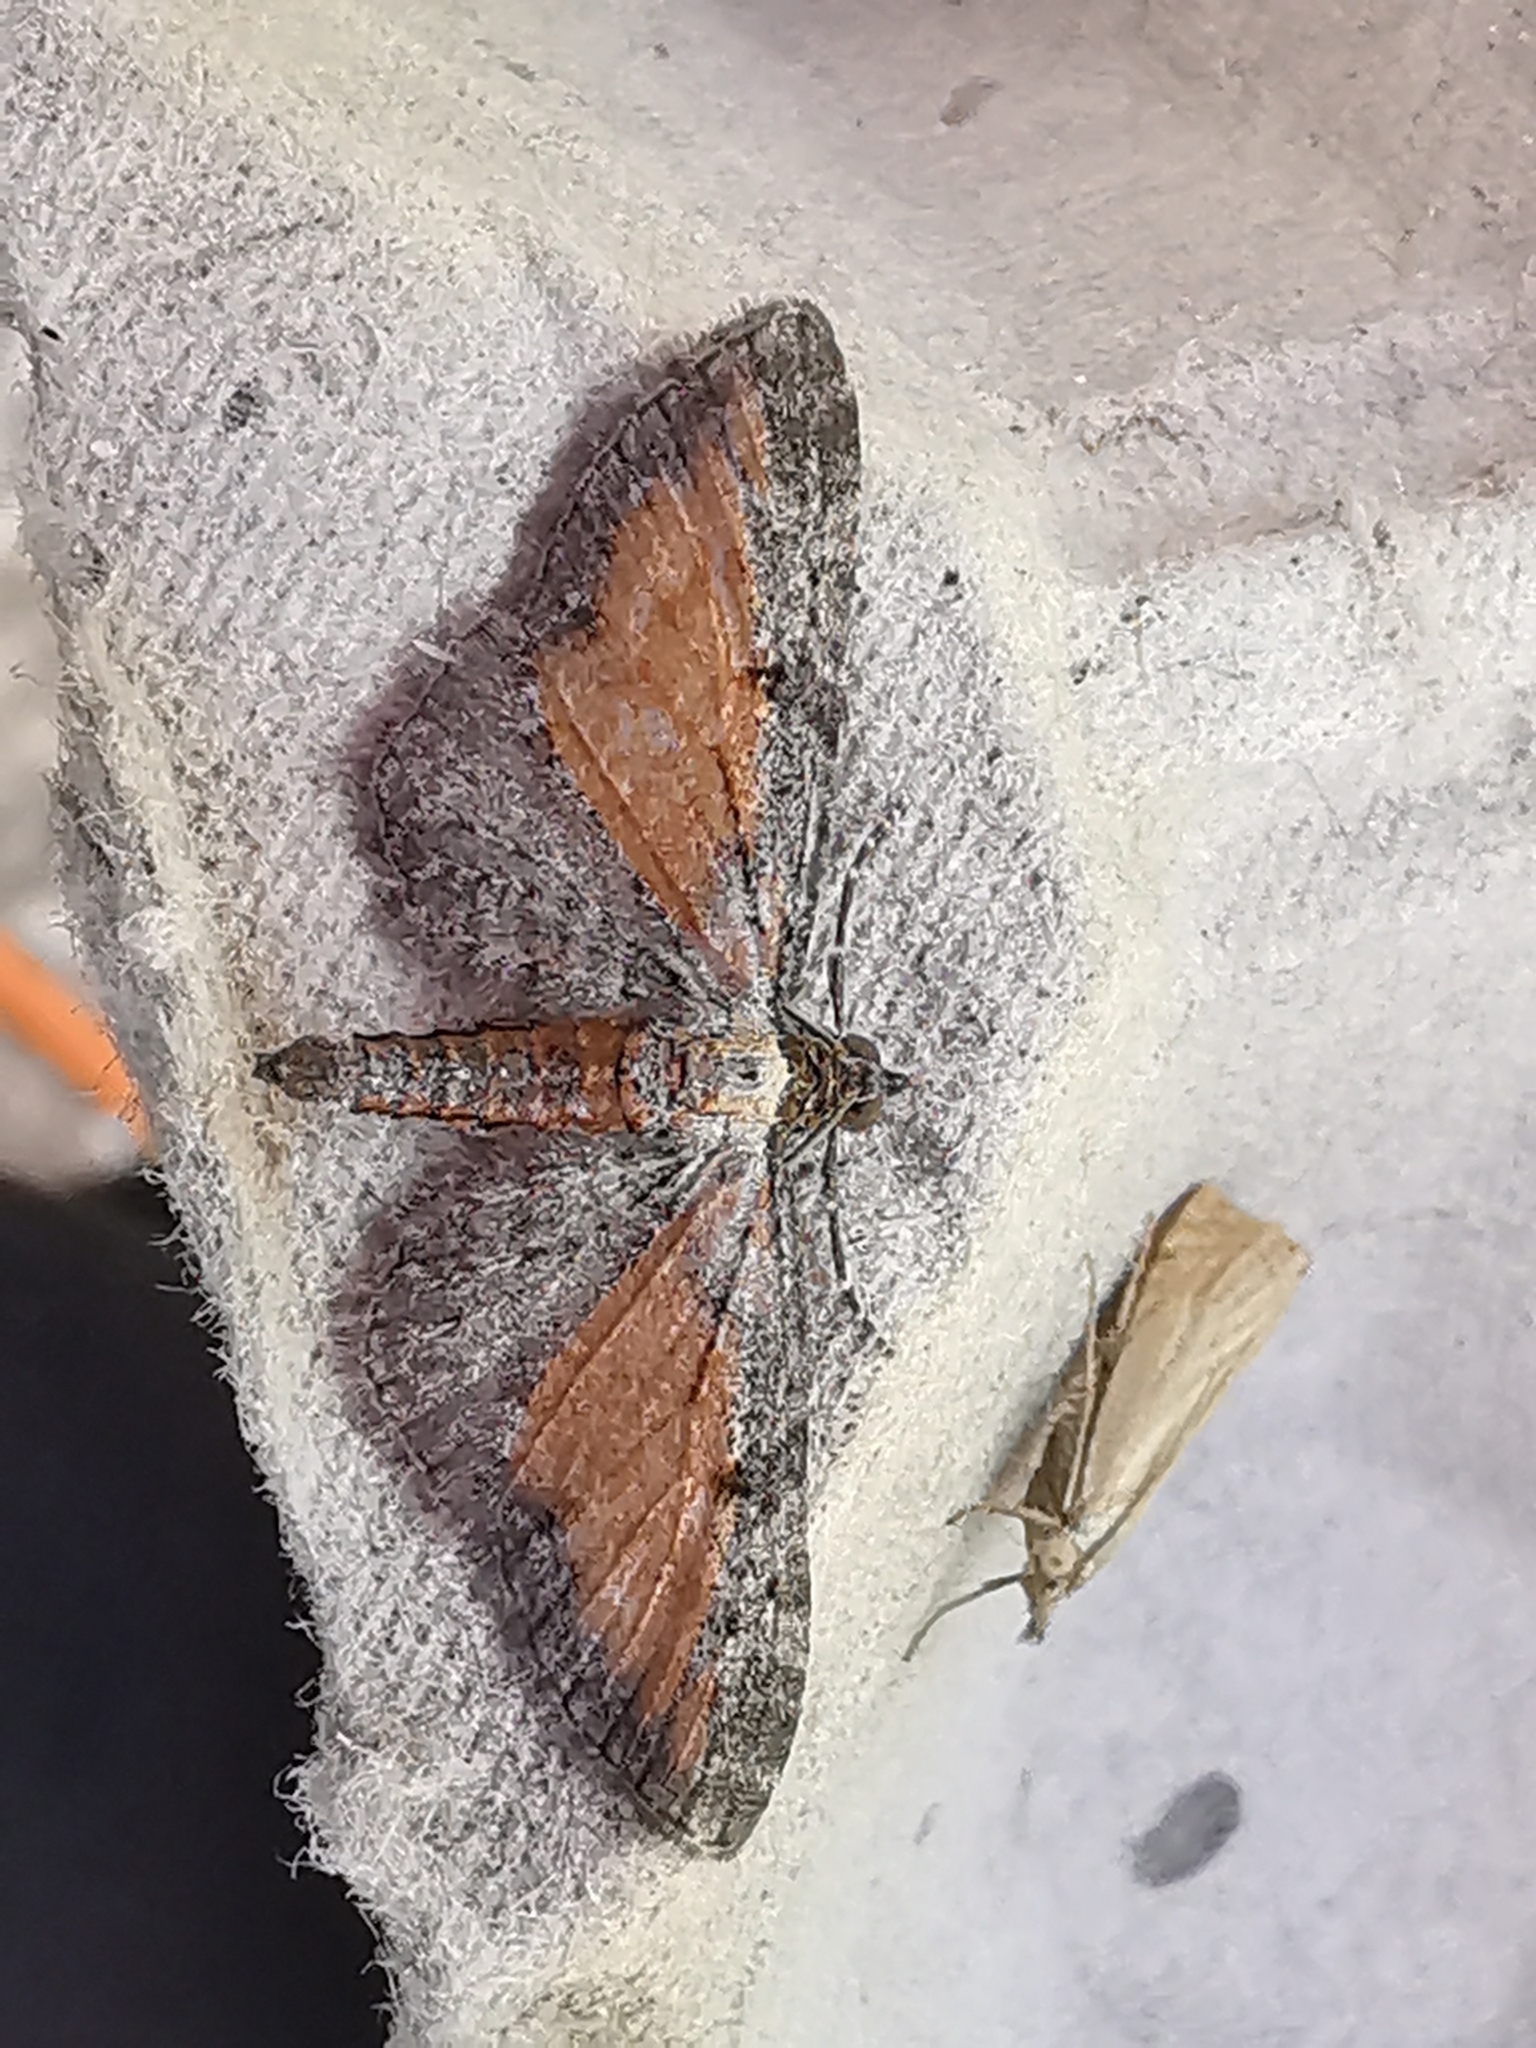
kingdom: Animalia
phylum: Arthropoda
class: Insecta
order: Lepidoptera
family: Geometridae
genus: Eupithecia
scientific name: Eupithecia icterata
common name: Tawny speckled pug
